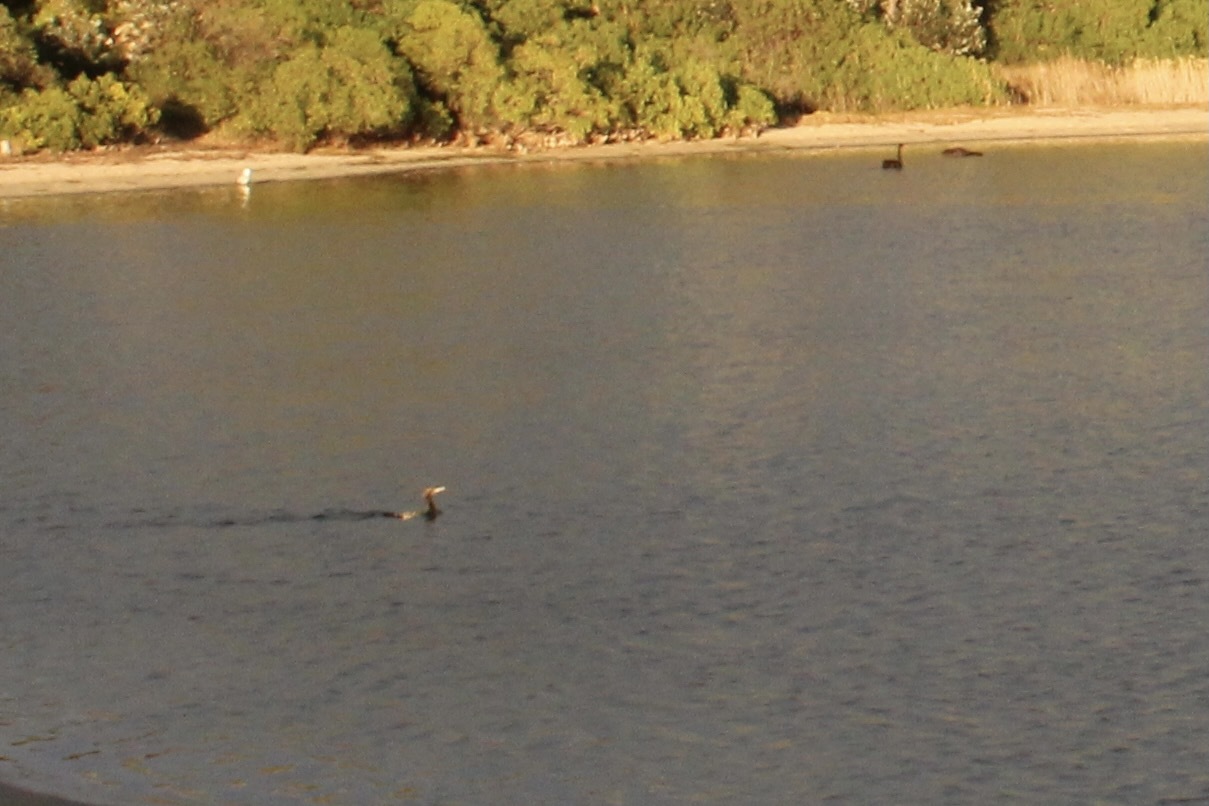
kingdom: Animalia
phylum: Chordata
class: Aves
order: Suliformes
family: Phalacrocoracidae
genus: Phalacrocorax
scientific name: Phalacrocorax carbo
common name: Great cormorant
